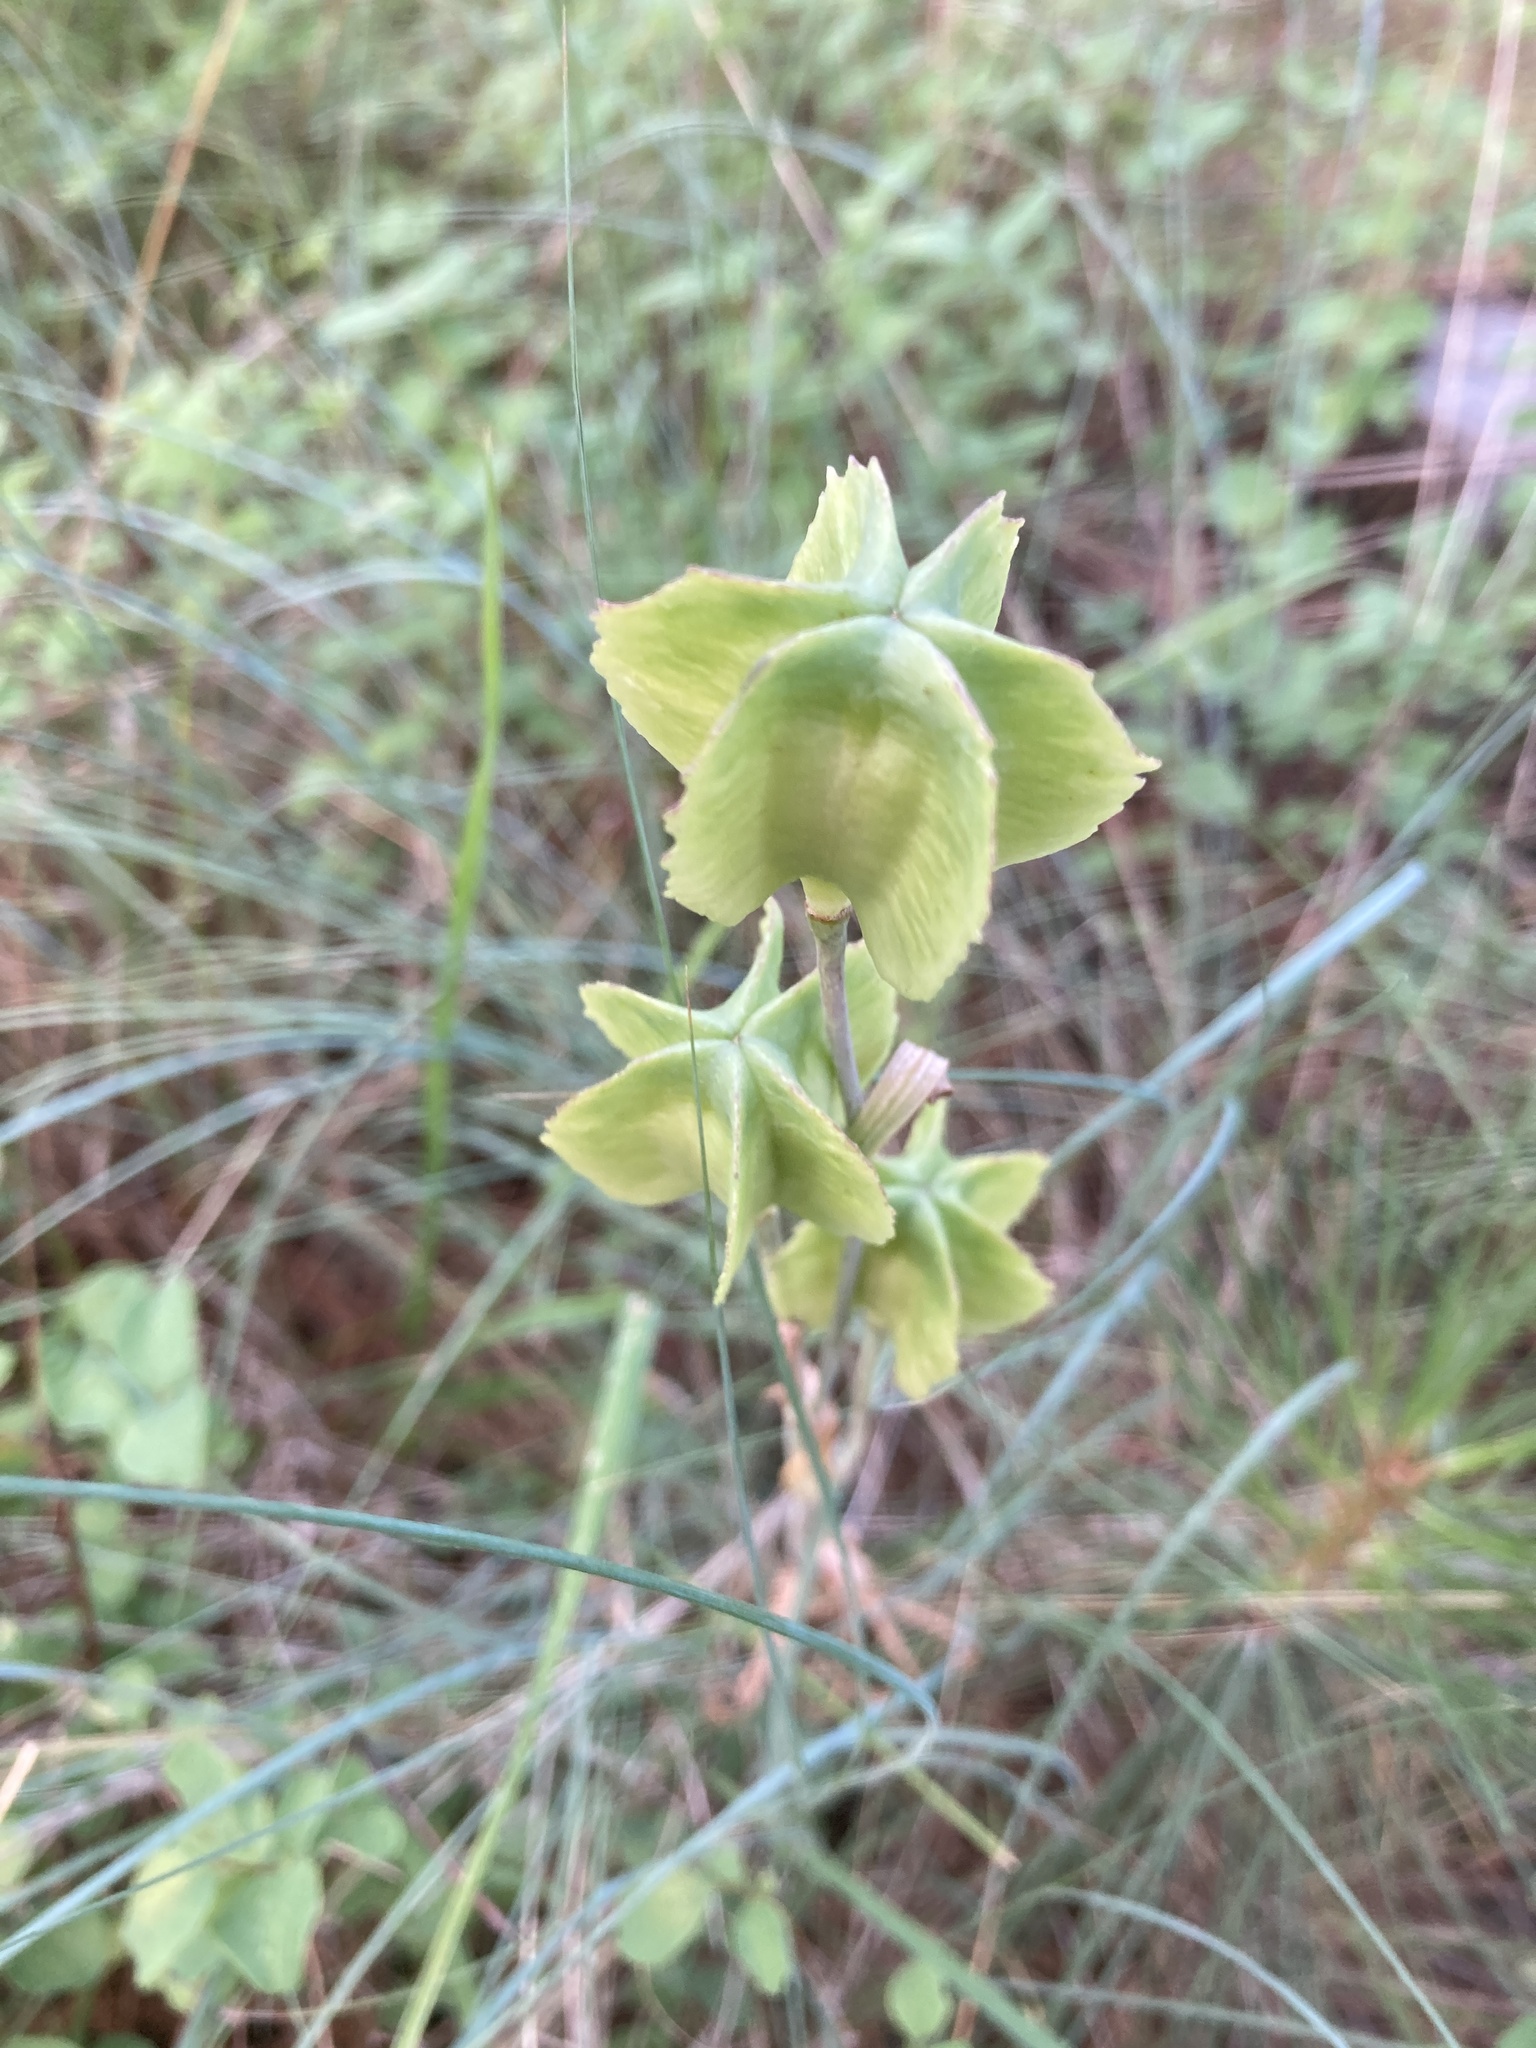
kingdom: Plantae
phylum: Tracheophyta
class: Liliopsida
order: Liliales
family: Liliaceae
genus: Fritillaria
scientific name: Fritillaria affinis
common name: Ojai fritillary
